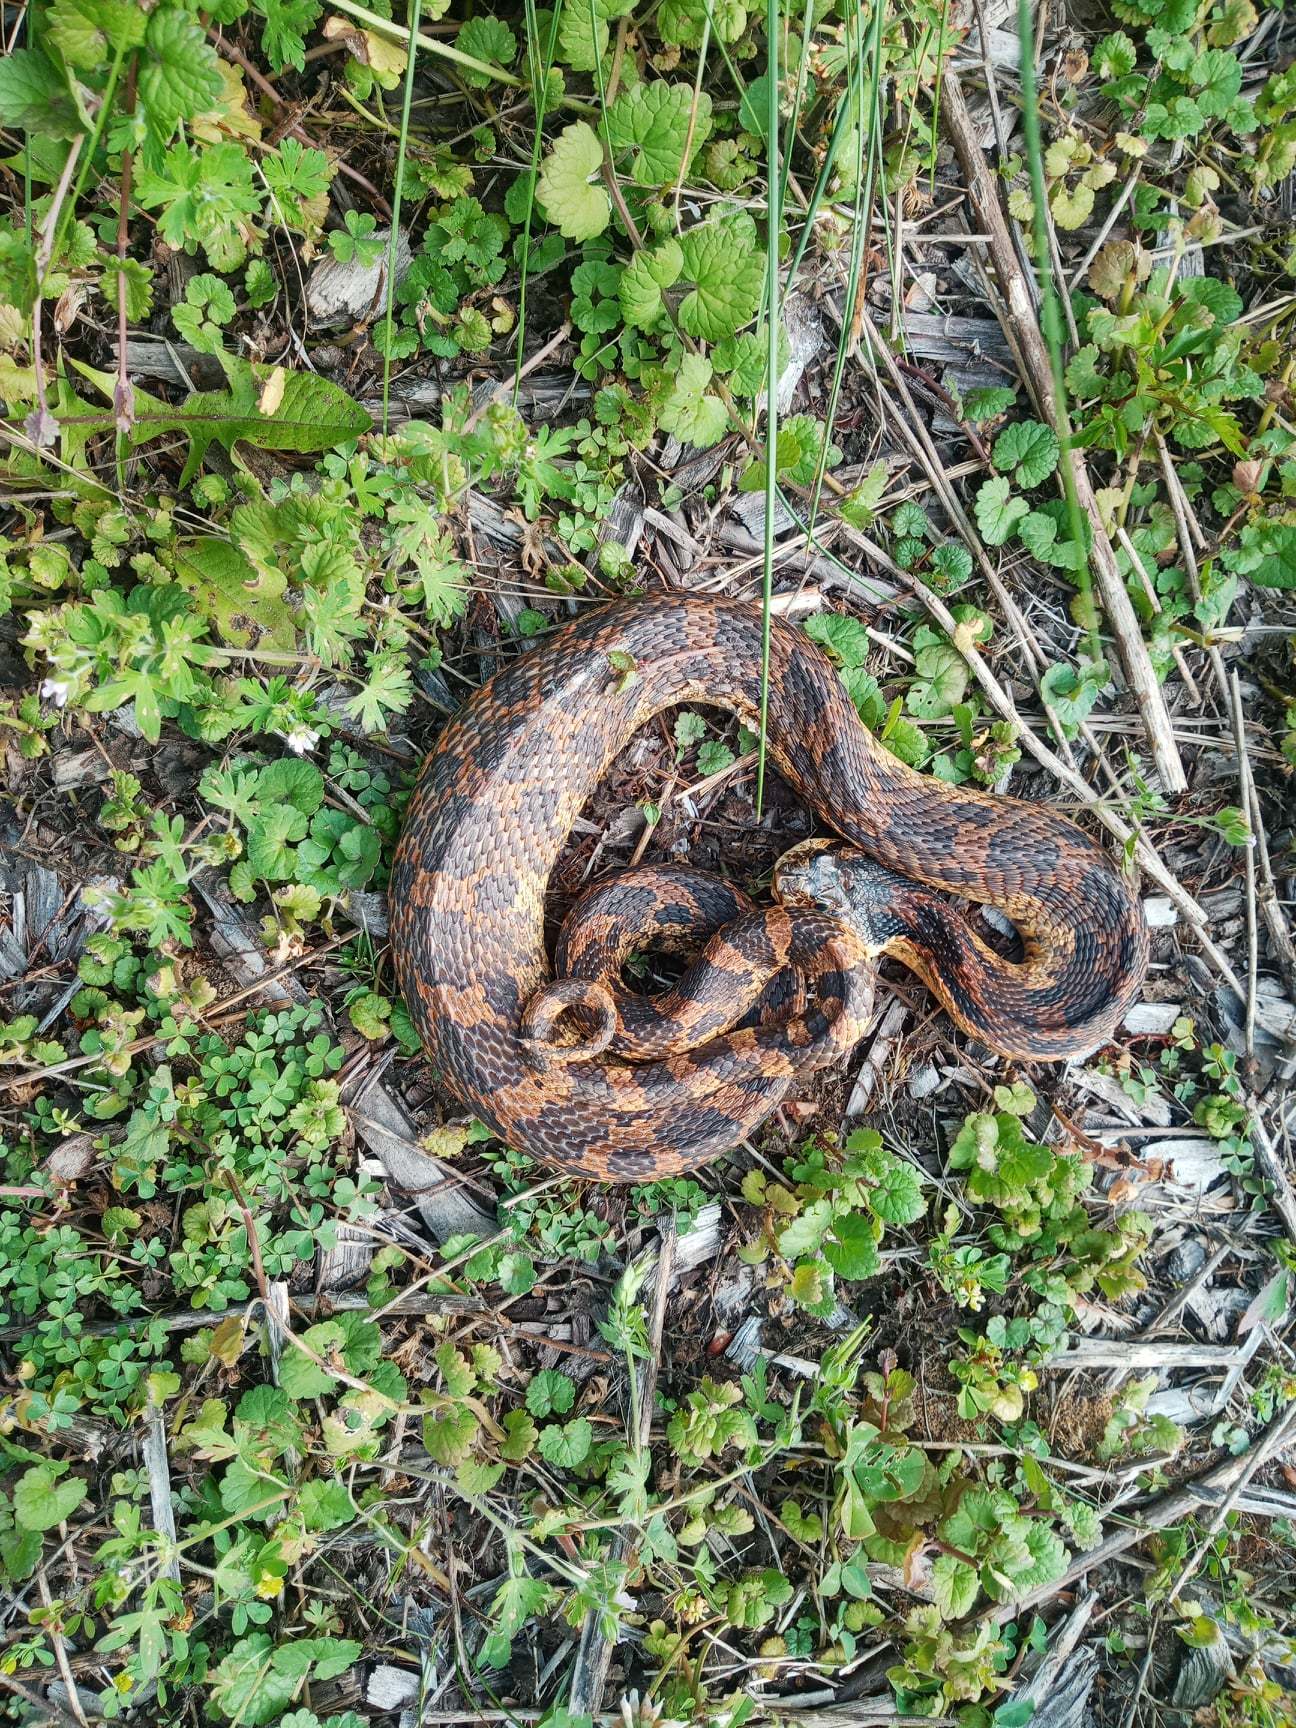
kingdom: Animalia
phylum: Chordata
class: Squamata
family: Colubridae
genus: Heterodon
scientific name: Heterodon platirhinos
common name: Eastern hognose snake
